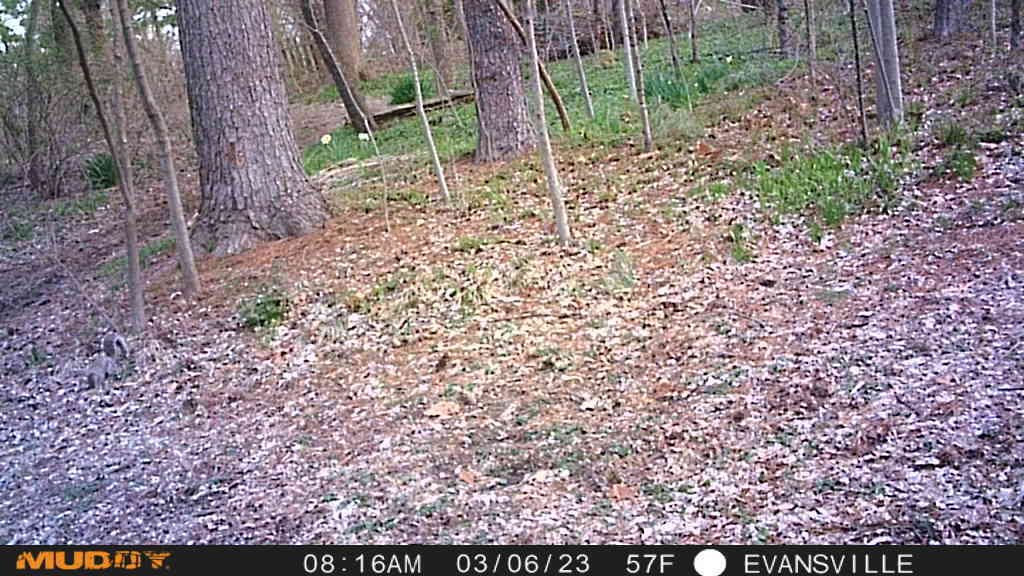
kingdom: Animalia
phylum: Chordata
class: Mammalia
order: Rodentia
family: Sciuridae
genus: Sciurus
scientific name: Sciurus carolinensis
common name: Eastern gray squirrel
